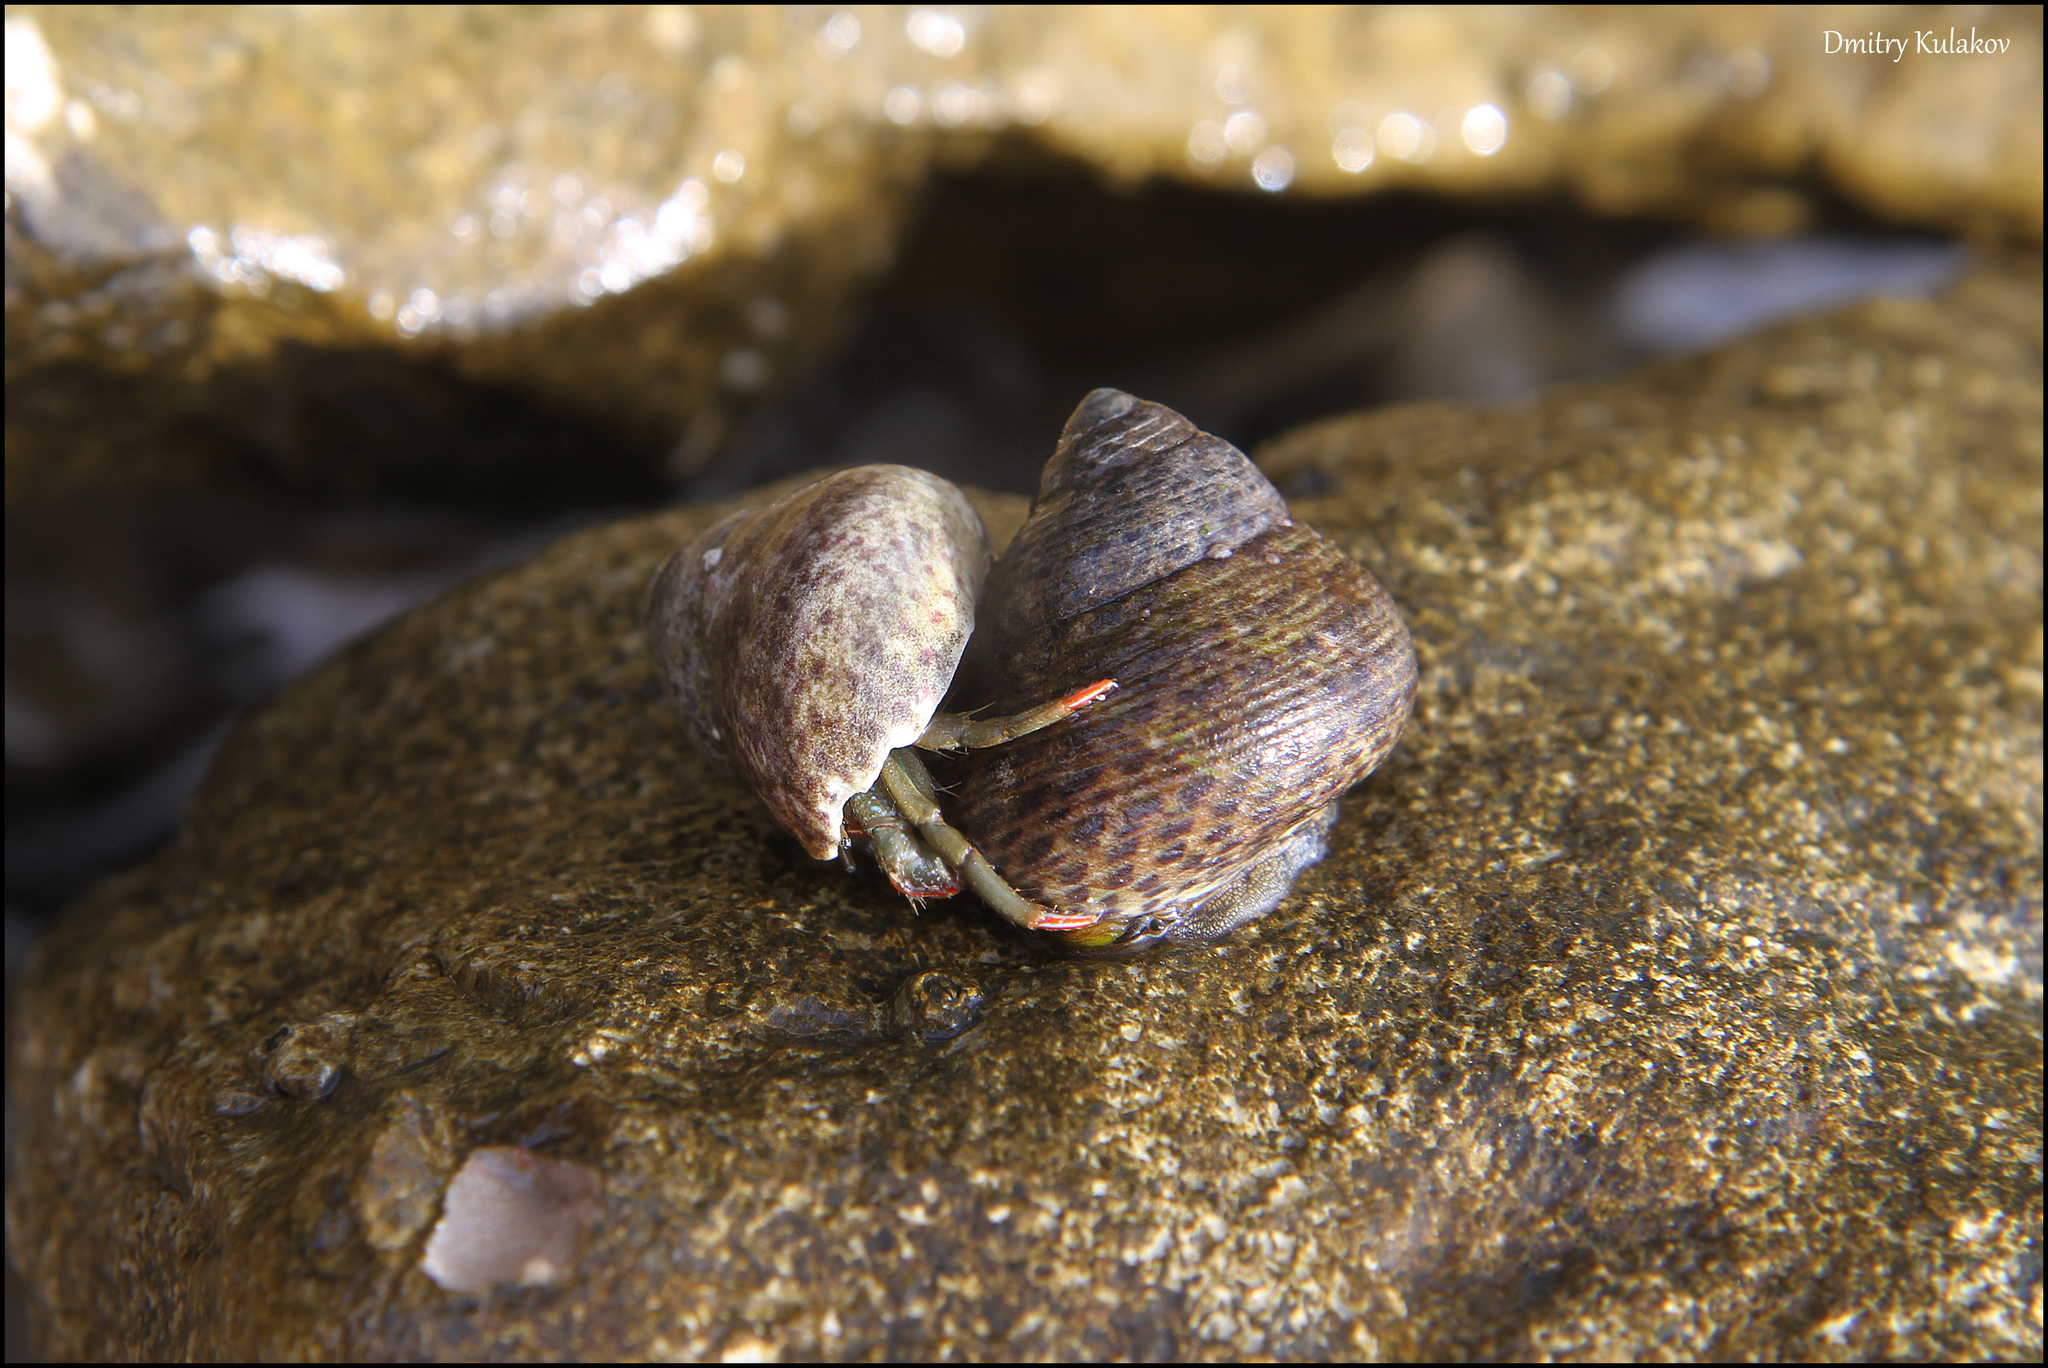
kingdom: Animalia
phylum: Mollusca
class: Gastropoda
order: Trochida
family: Trochidae
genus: Phorcus
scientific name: Phorcus turbinatus
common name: Turbinate monodont
